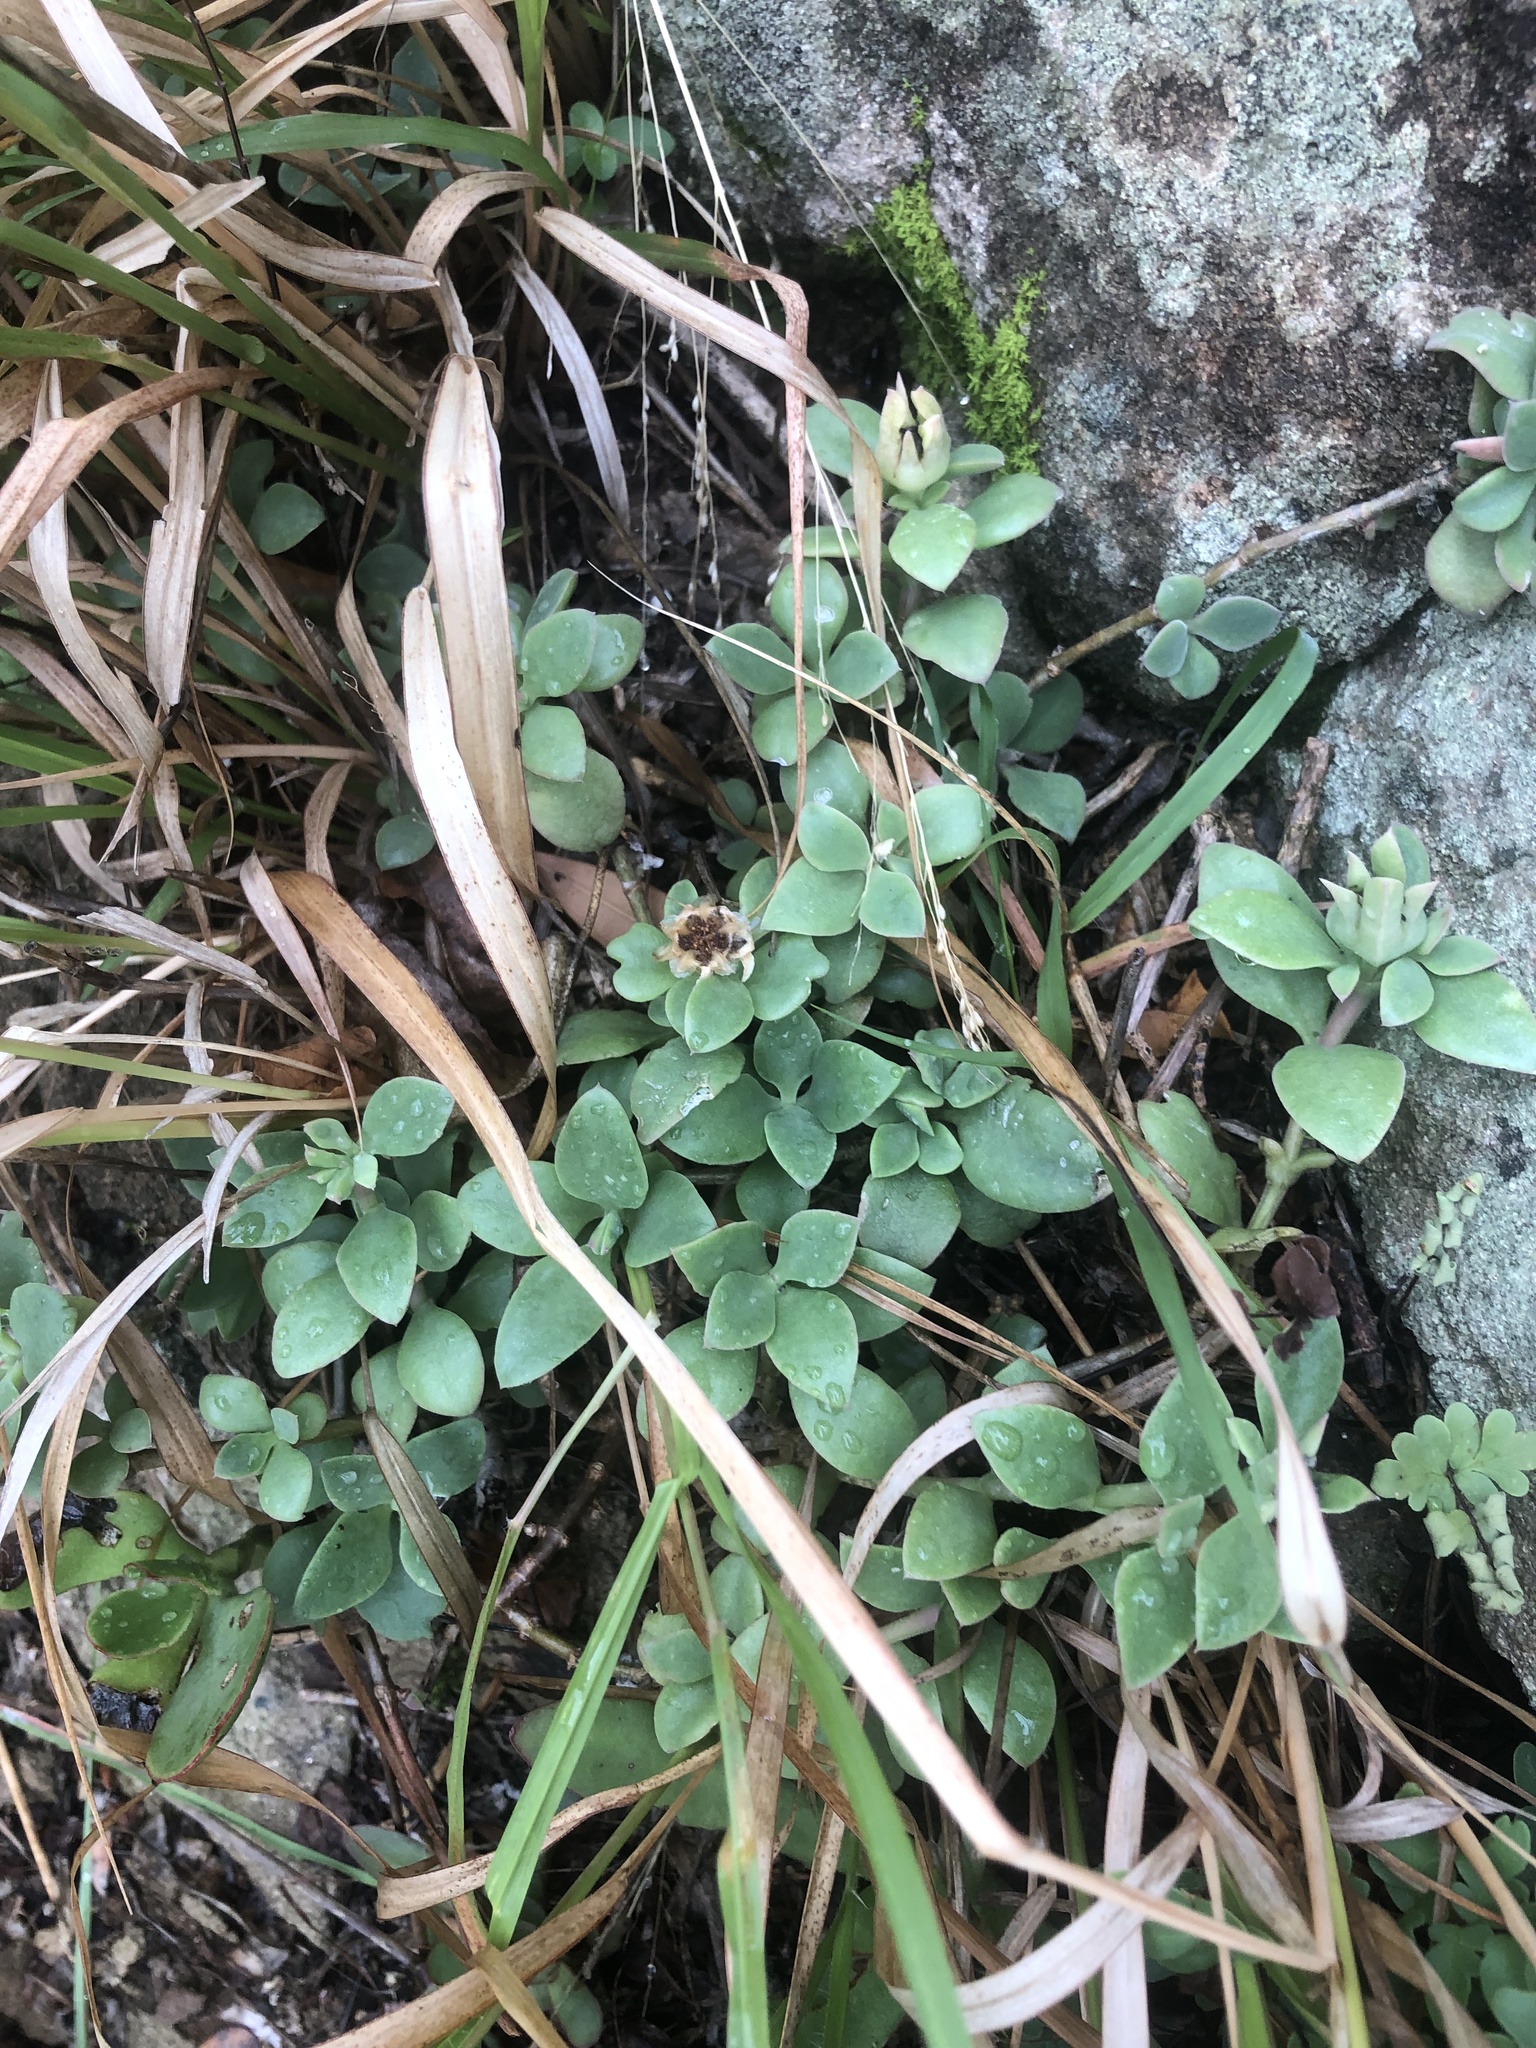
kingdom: Plantae
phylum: Tracheophyta
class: Magnoliopsida
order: Caryophyllales
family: Aizoaceae
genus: Delosperma
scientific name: Delosperma tradescantioides
